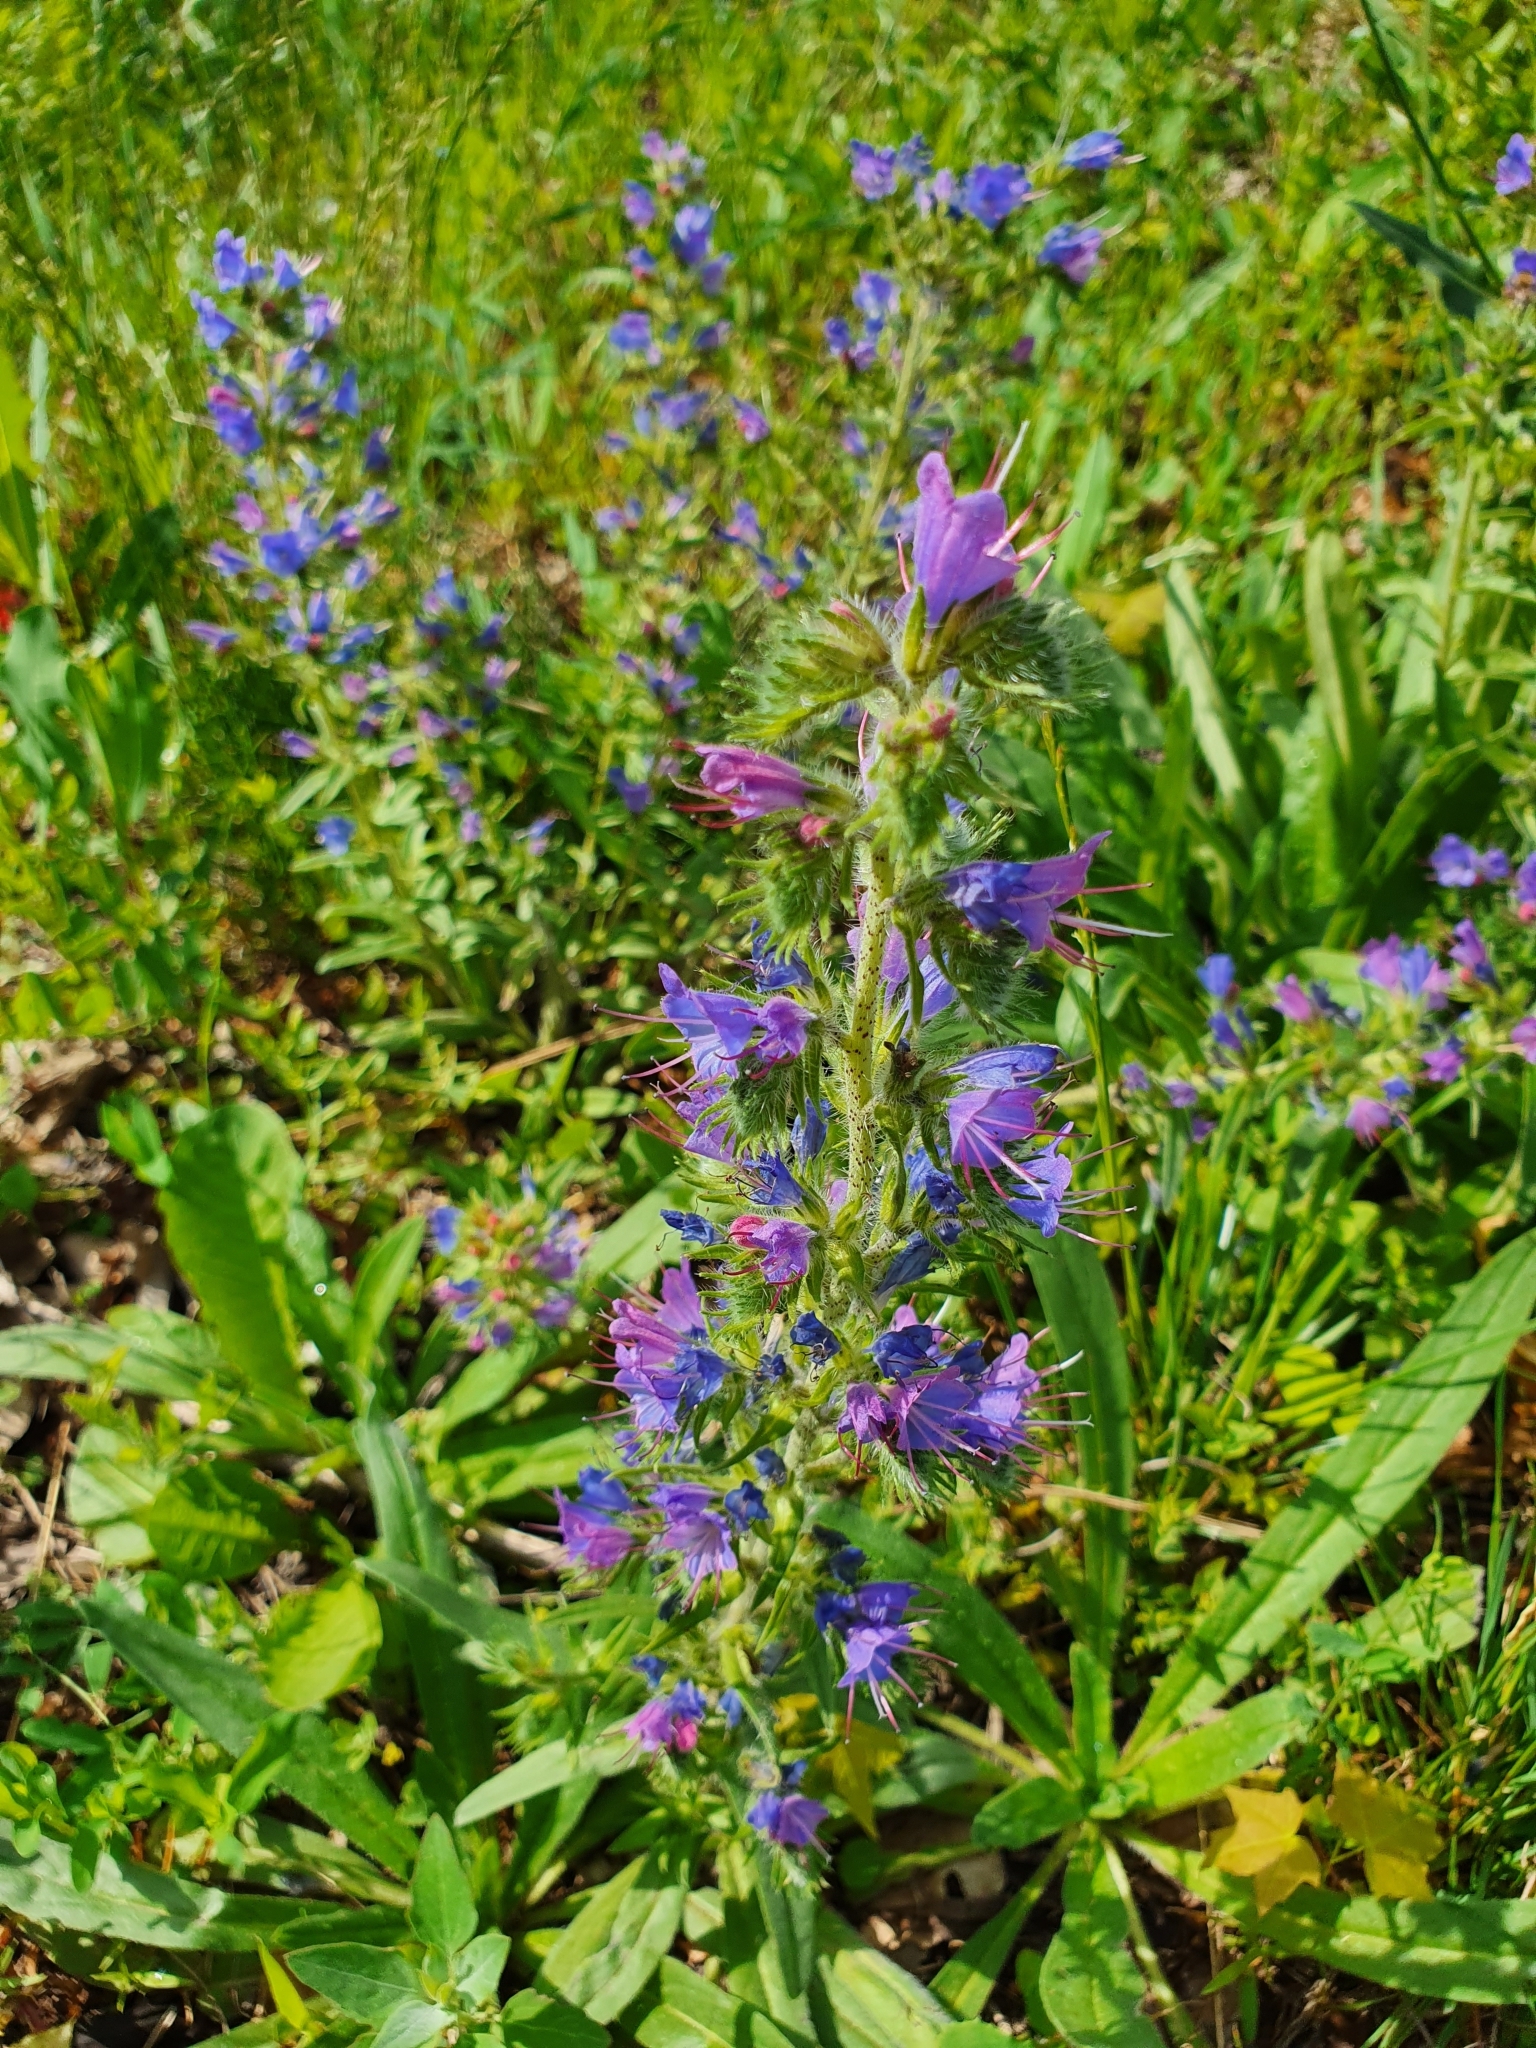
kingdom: Plantae
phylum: Tracheophyta
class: Magnoliopsida
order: Boraginales
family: Boraginaceae
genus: Echium
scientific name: Echium vulgare
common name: Common viper's bugloss
